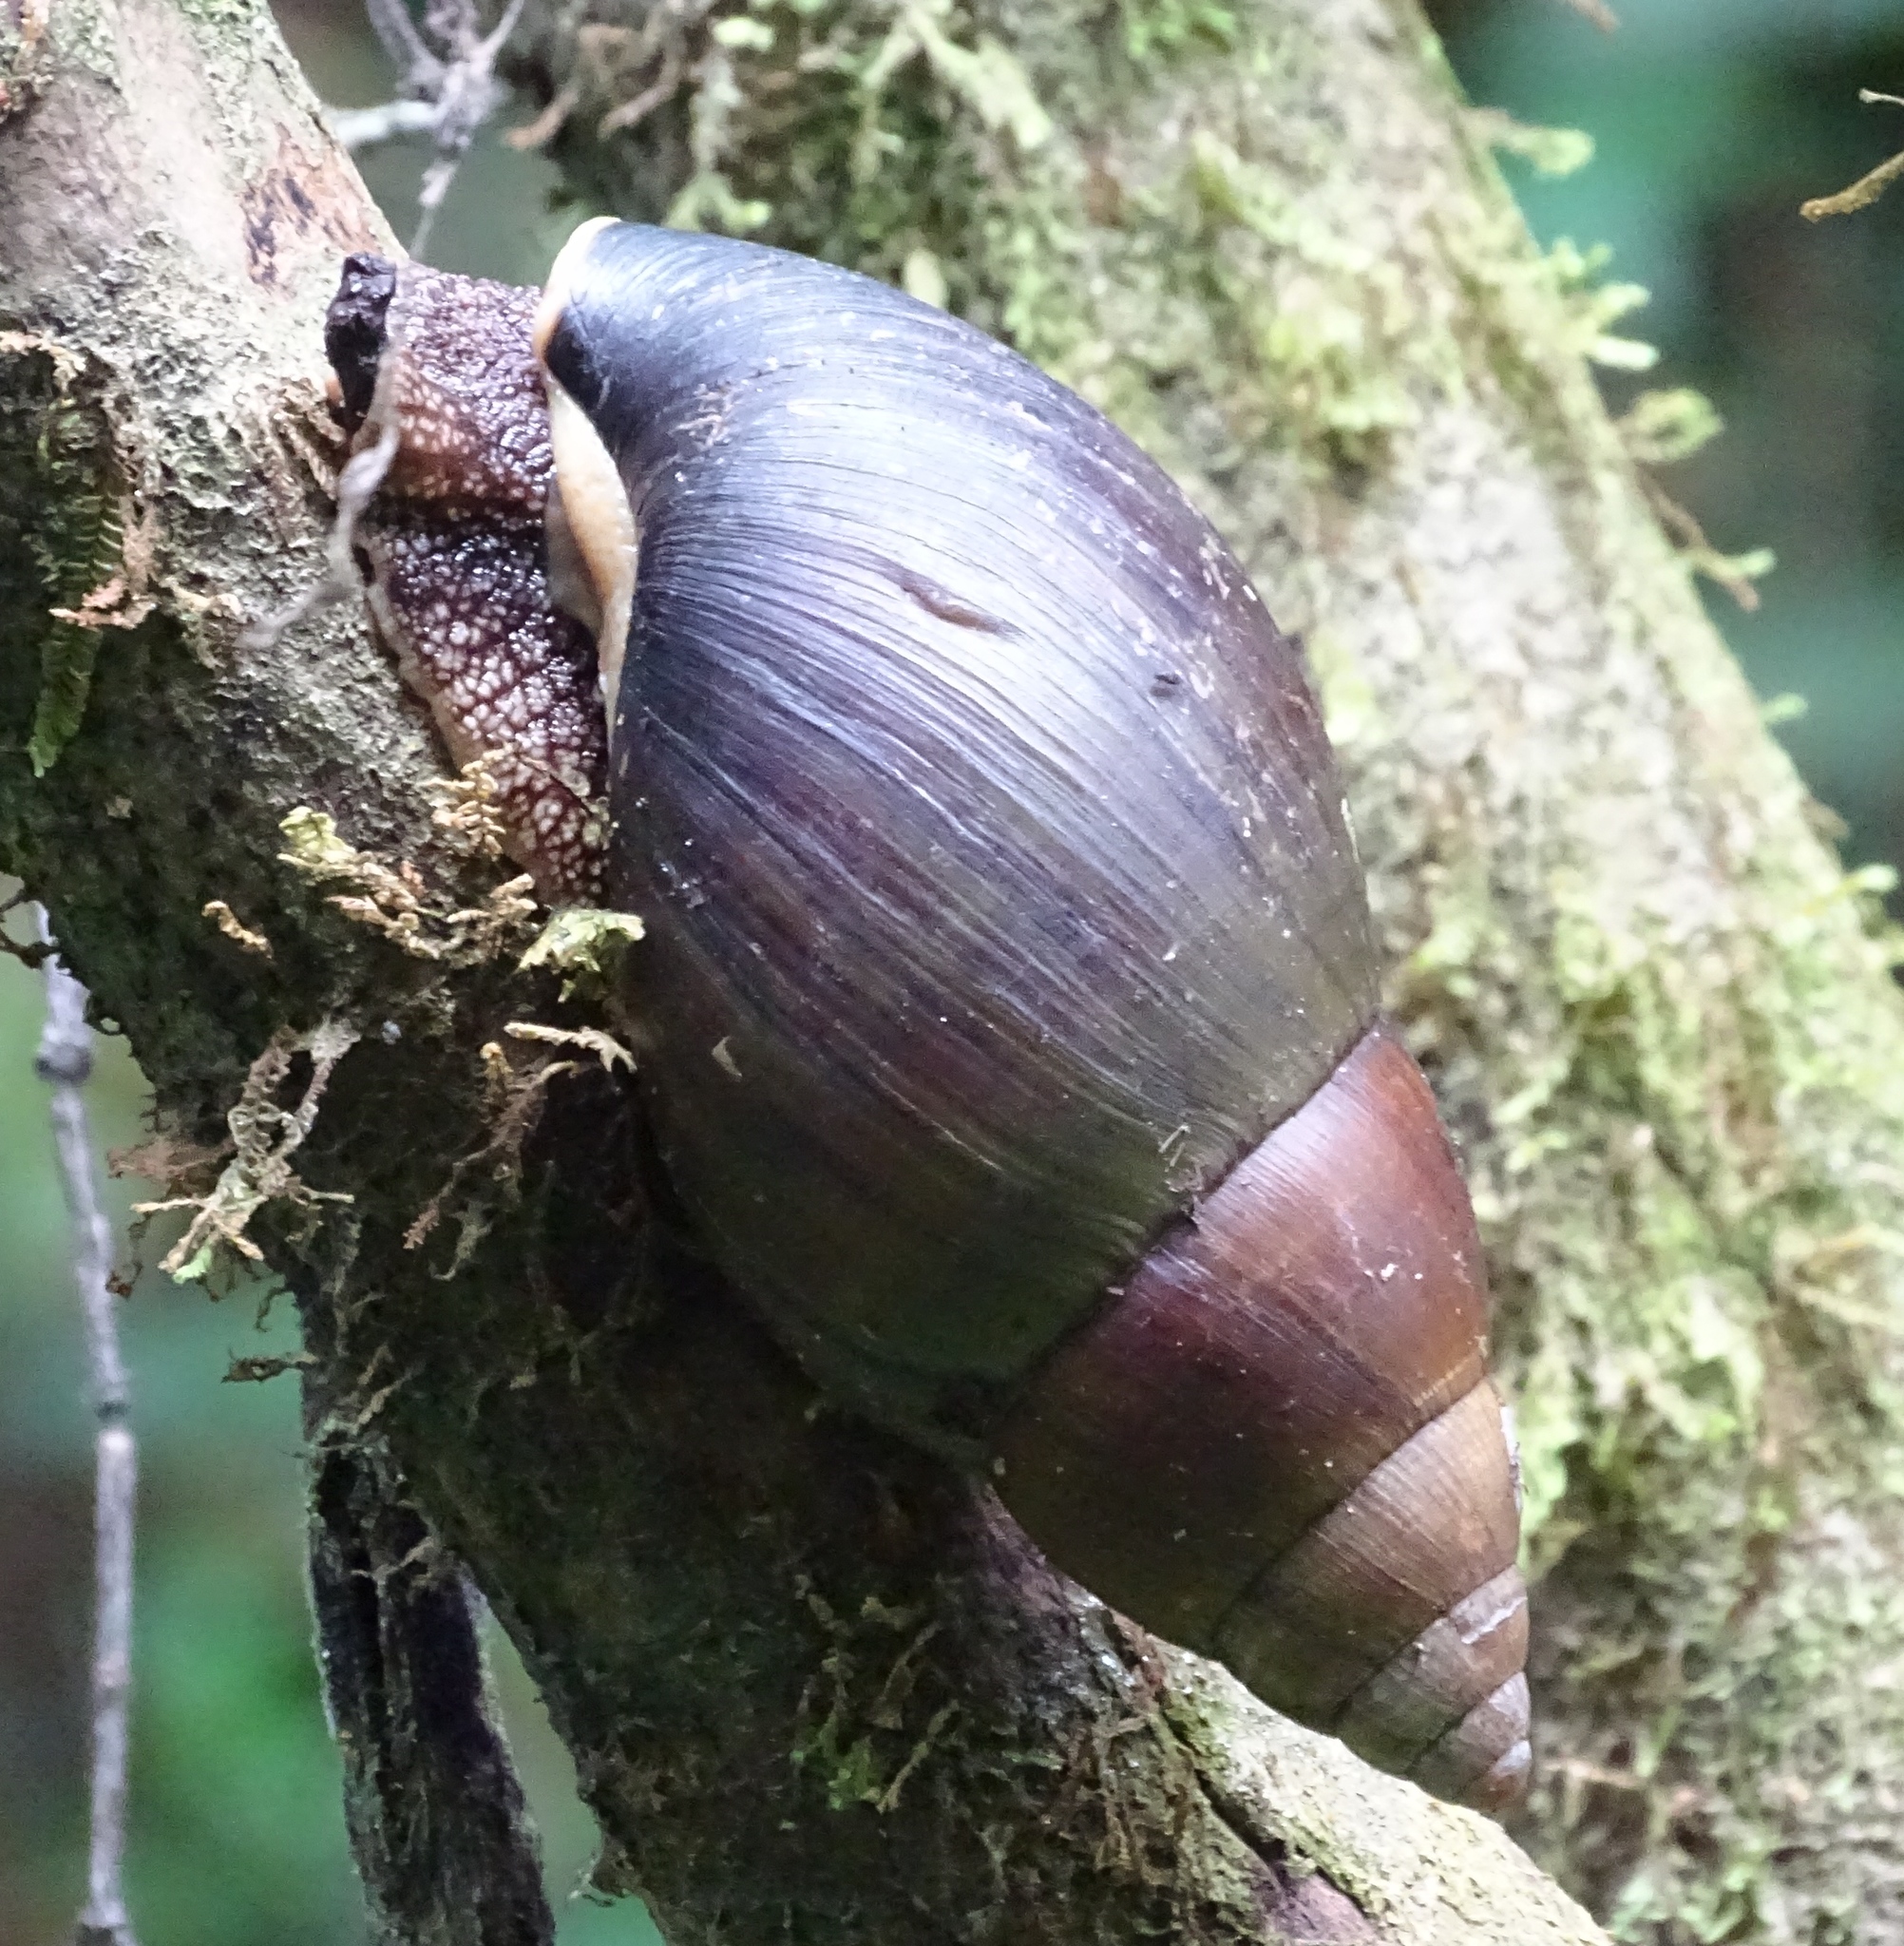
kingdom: Animalia
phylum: Mollusca
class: Gastropoda
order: Stylommatophora
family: Achatinidae
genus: Achatina
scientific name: Achatina stuhlmanni
